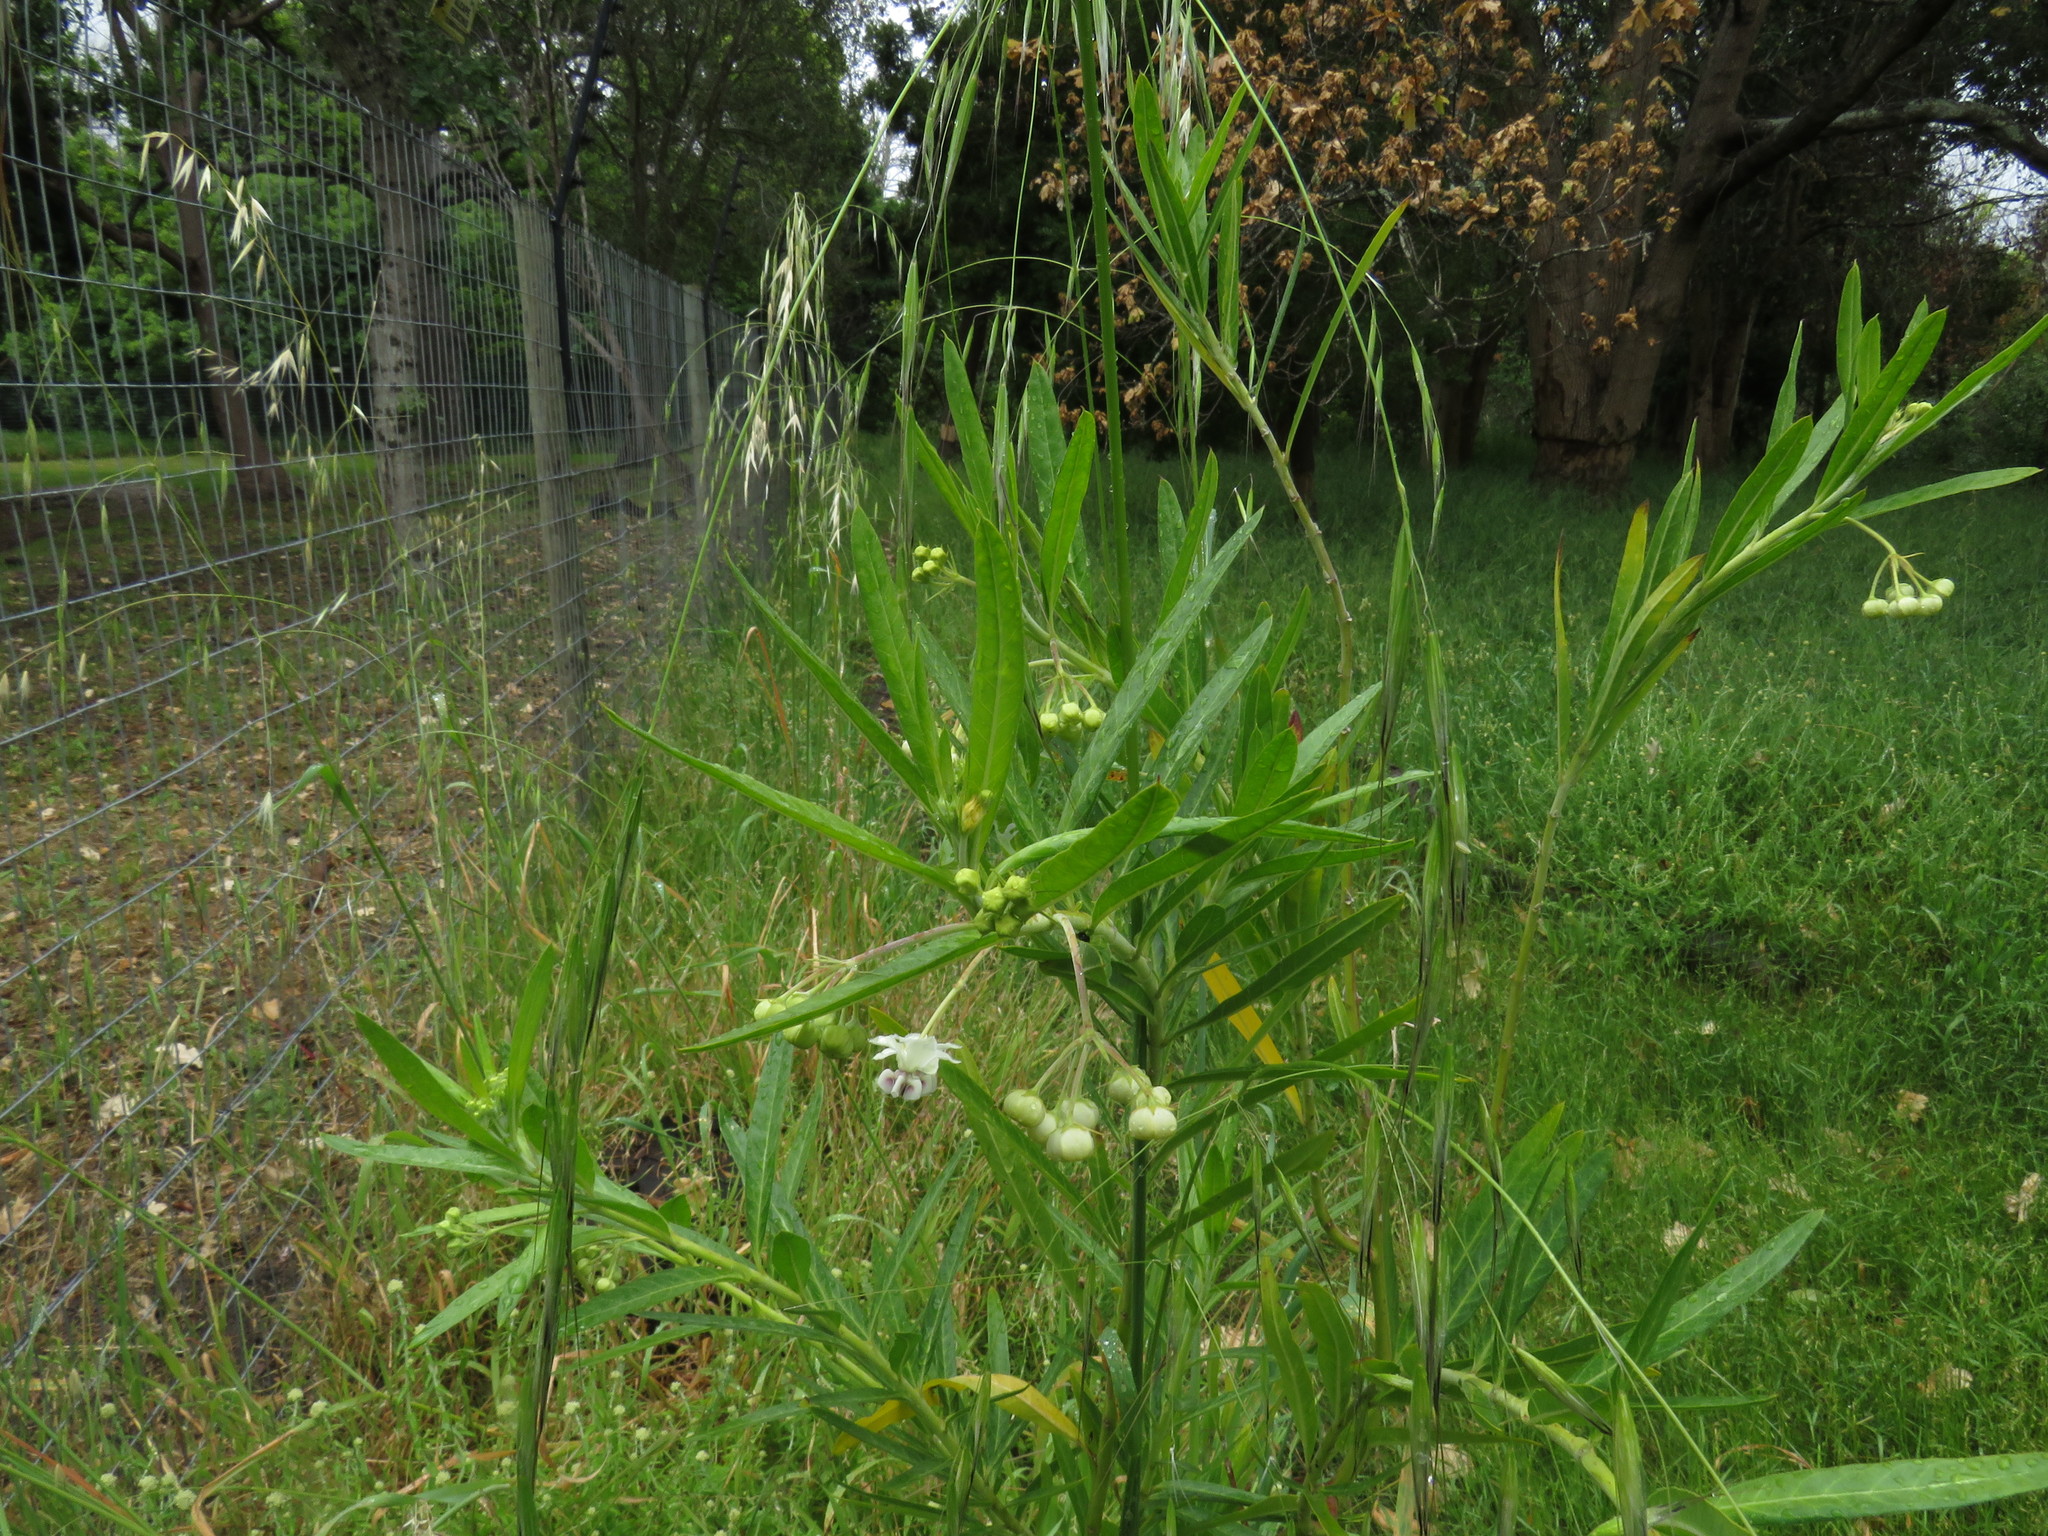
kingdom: Plantae
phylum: Tracheophyta
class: Magnoliopsida
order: Gentianales
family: Apocynaceae
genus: Gomphocarpus
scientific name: Gomphocarpus physocarpus
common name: Balloon cotton bush
